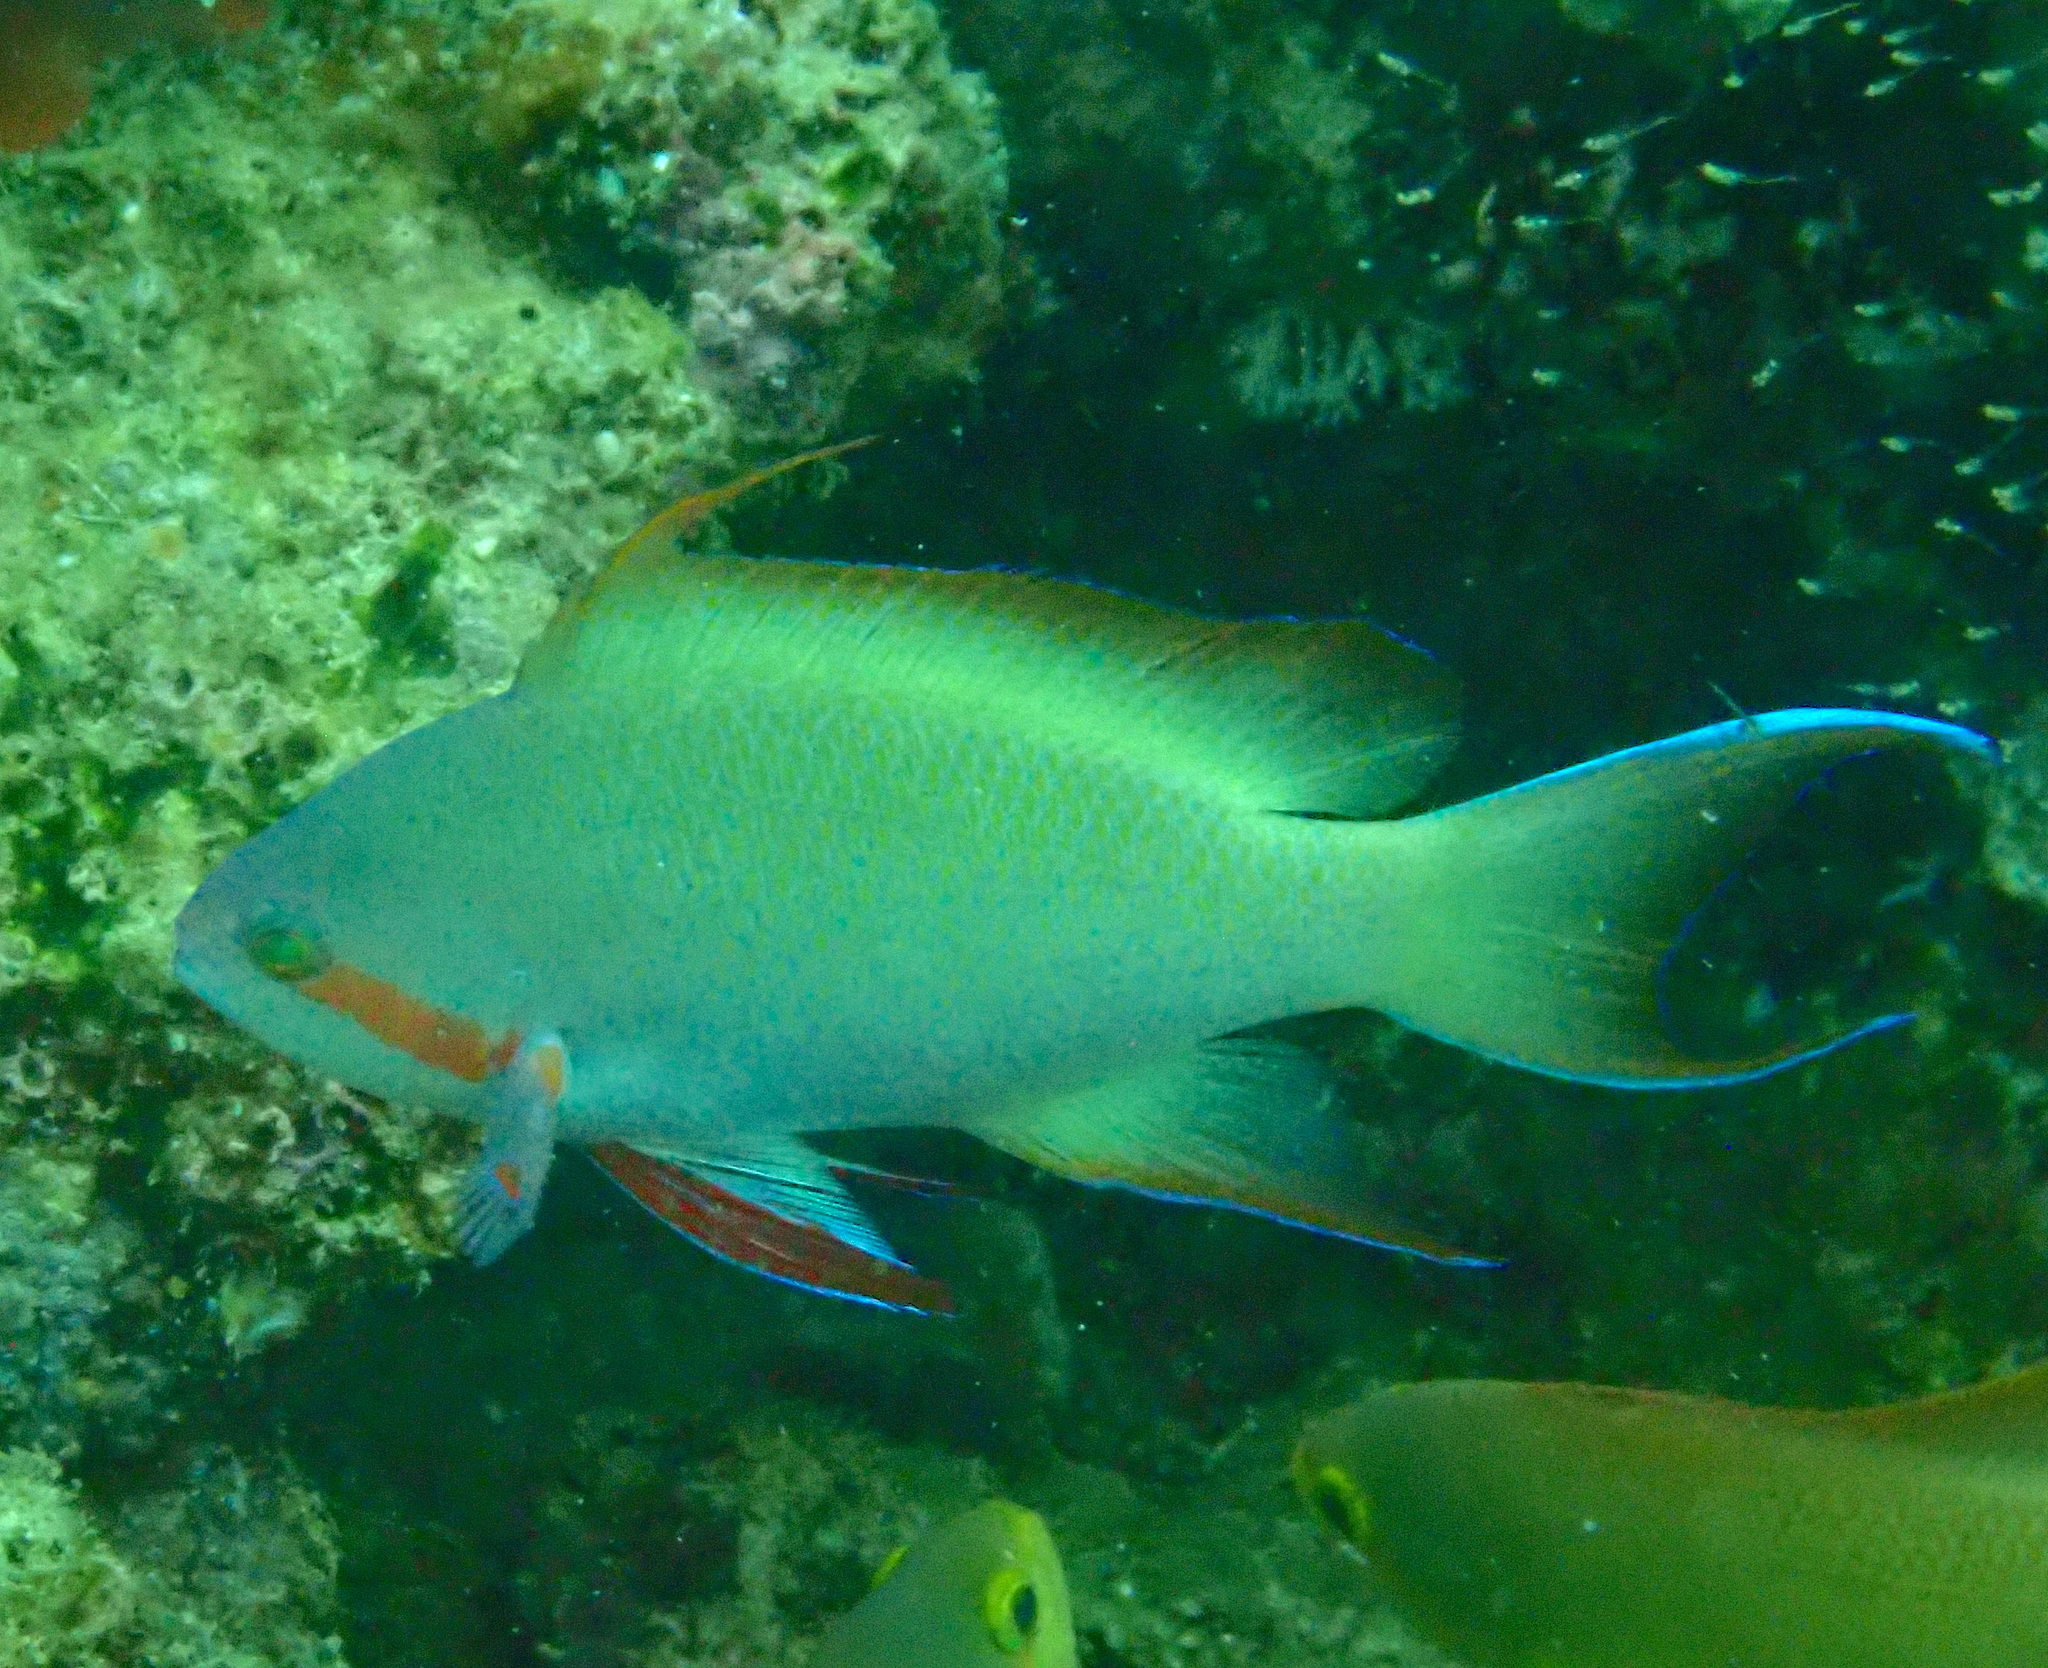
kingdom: Animalia
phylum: Chordata
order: Perciformes
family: Serranidae
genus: Pseudanthias
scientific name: Pseudanthias huchtii
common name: Pacific basslet
